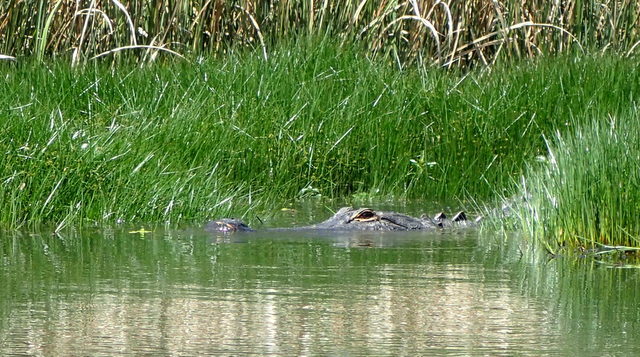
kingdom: Animalia
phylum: Chordata
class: Crocodylia
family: Alligatoridae
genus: Alligator
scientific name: Alligator mississippiensis
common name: American alligator
